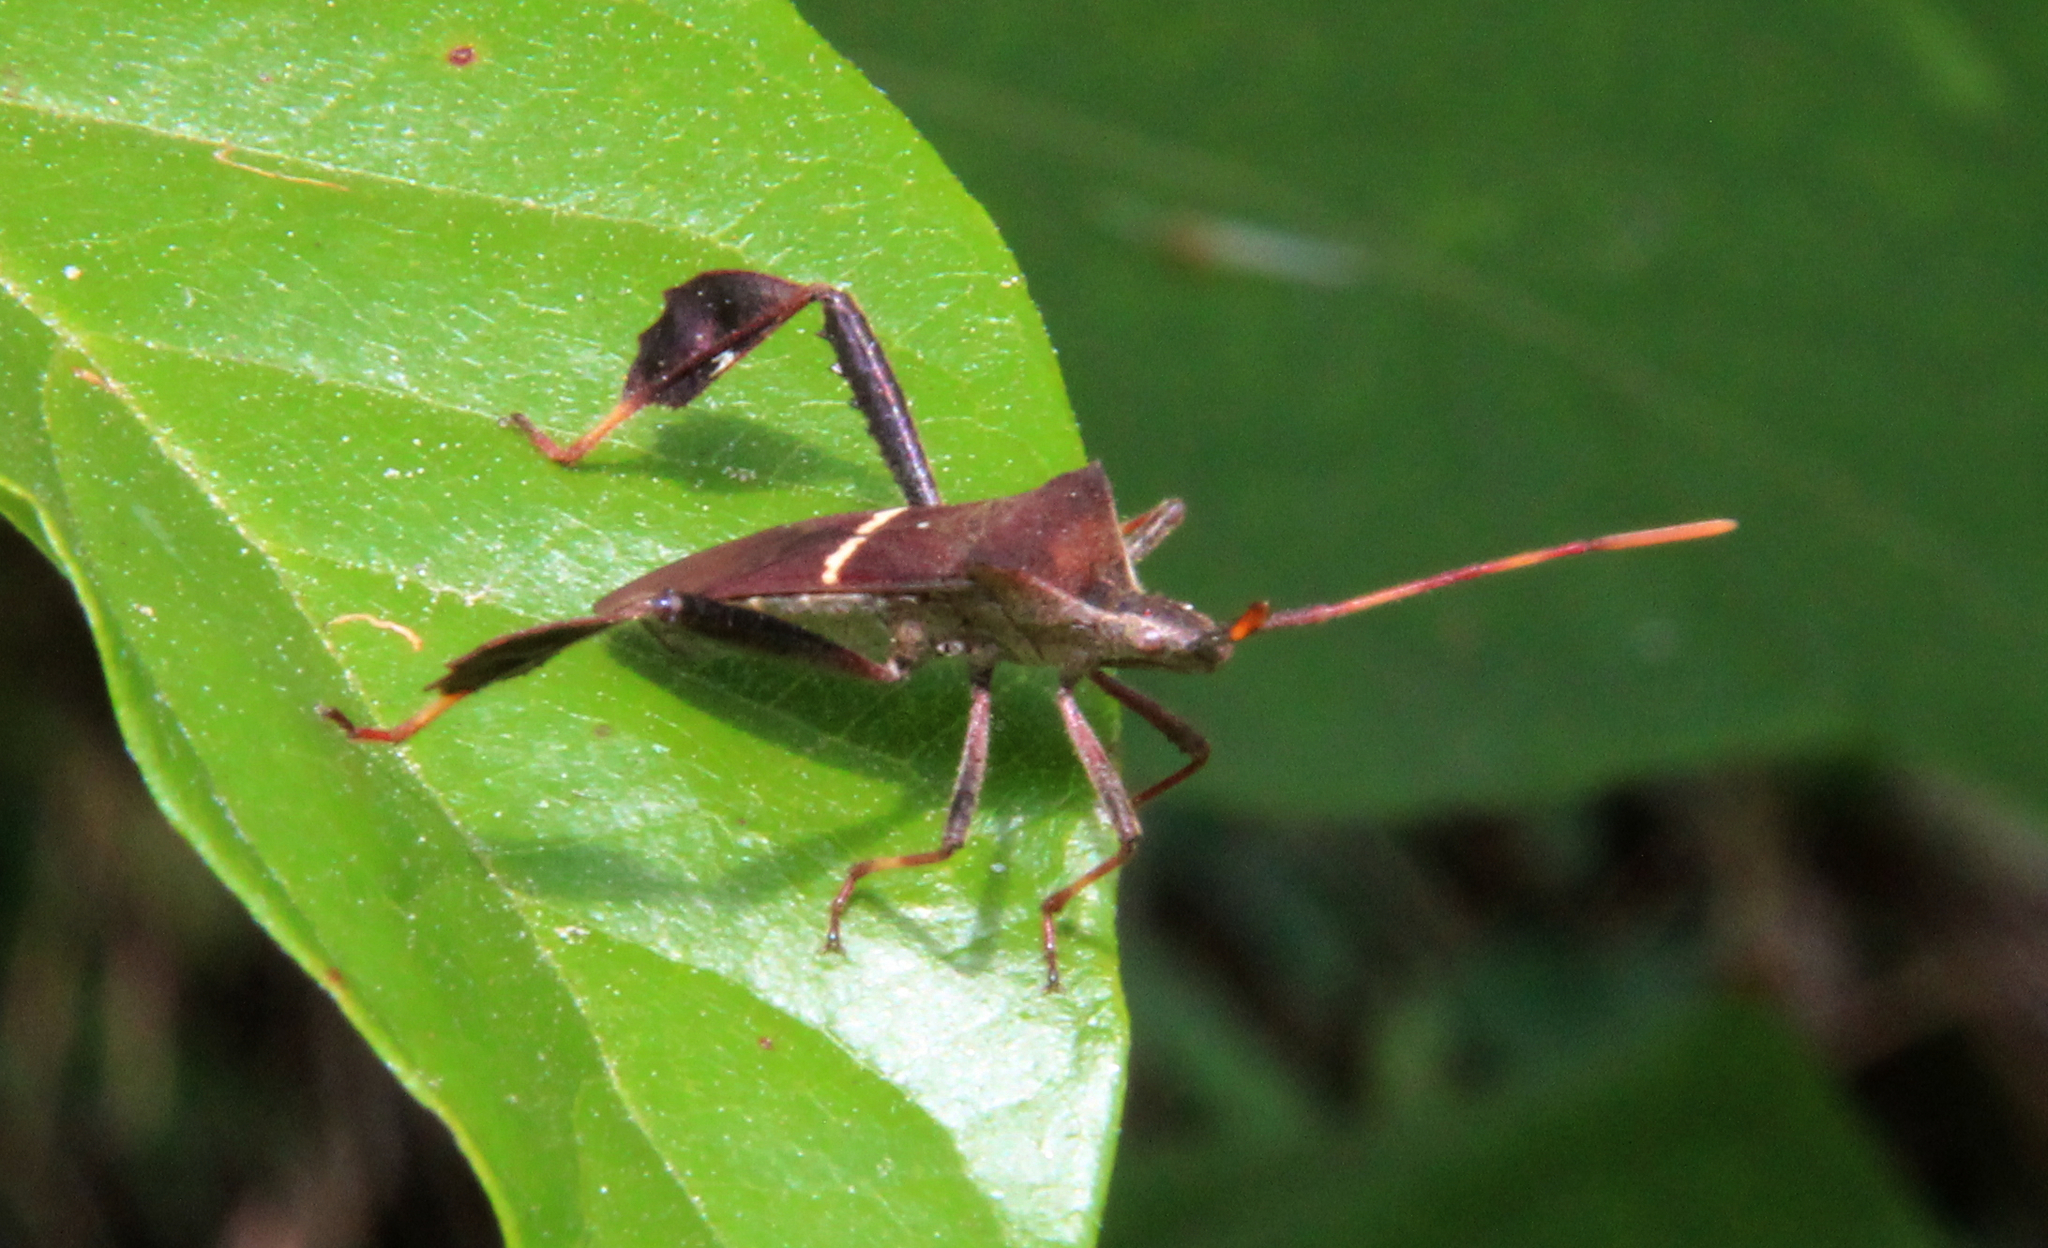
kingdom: Animalia
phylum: Arthropoda
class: Insecta
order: Hemiptera
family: Coreidae
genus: Leptoglossus
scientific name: Leptoglossus phyllopus
